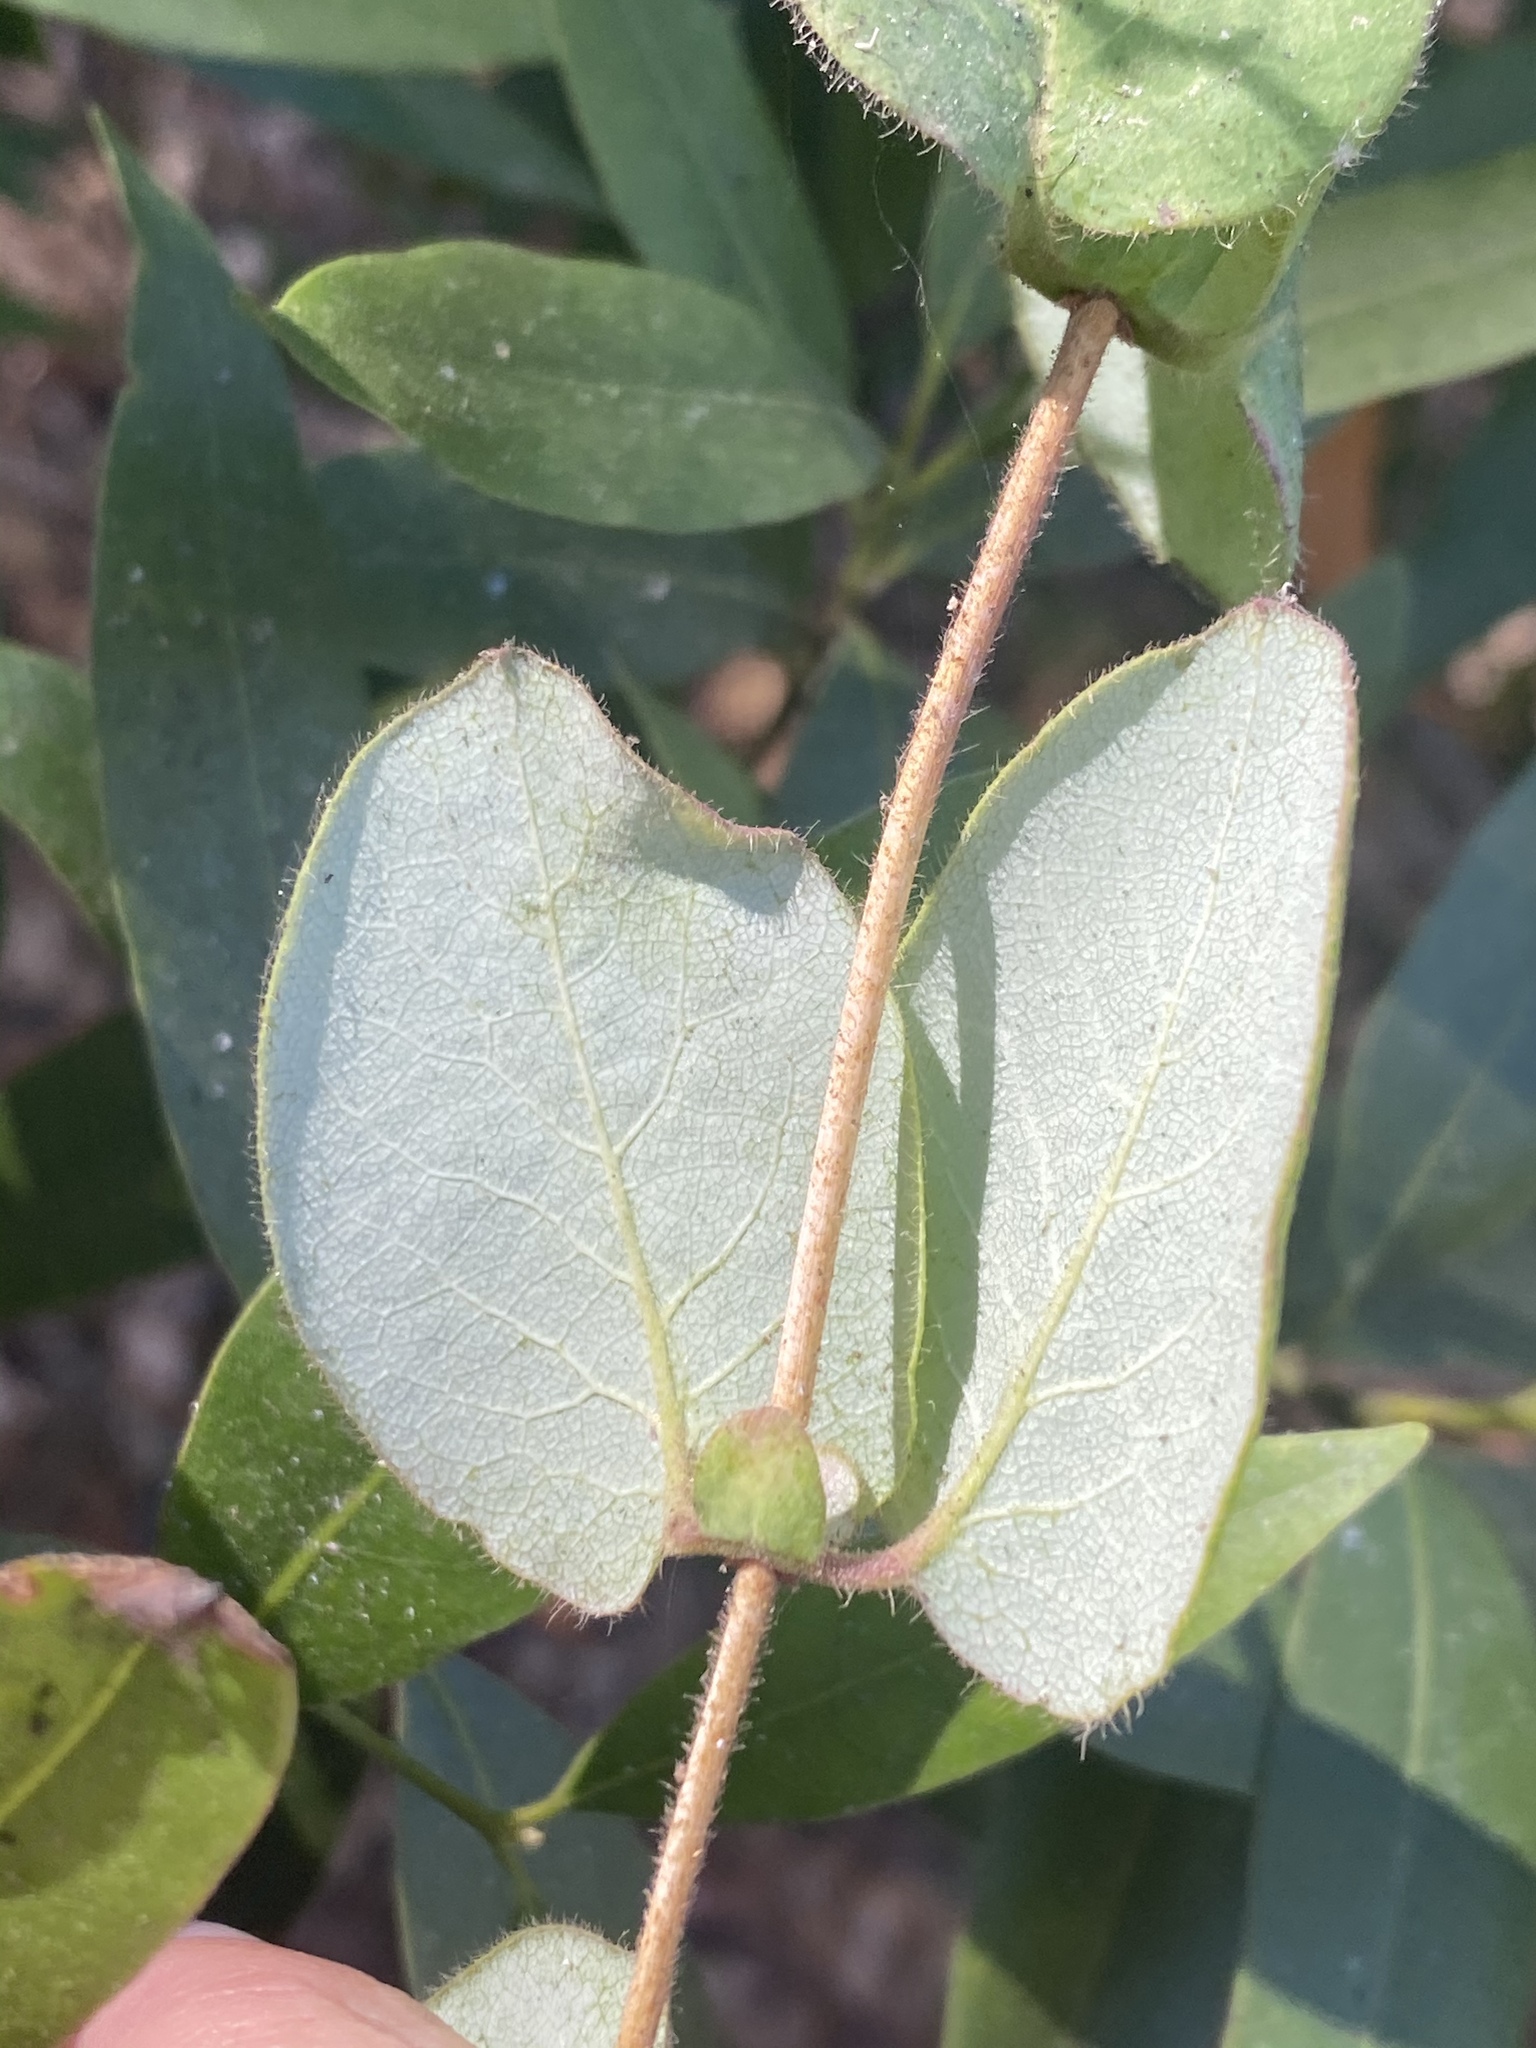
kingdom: Plantae
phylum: Tracheophyta
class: Magnoliopsida
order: Dipsacales
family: Caprifoliaceae
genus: Lonicera
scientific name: Lonicera hispidula
